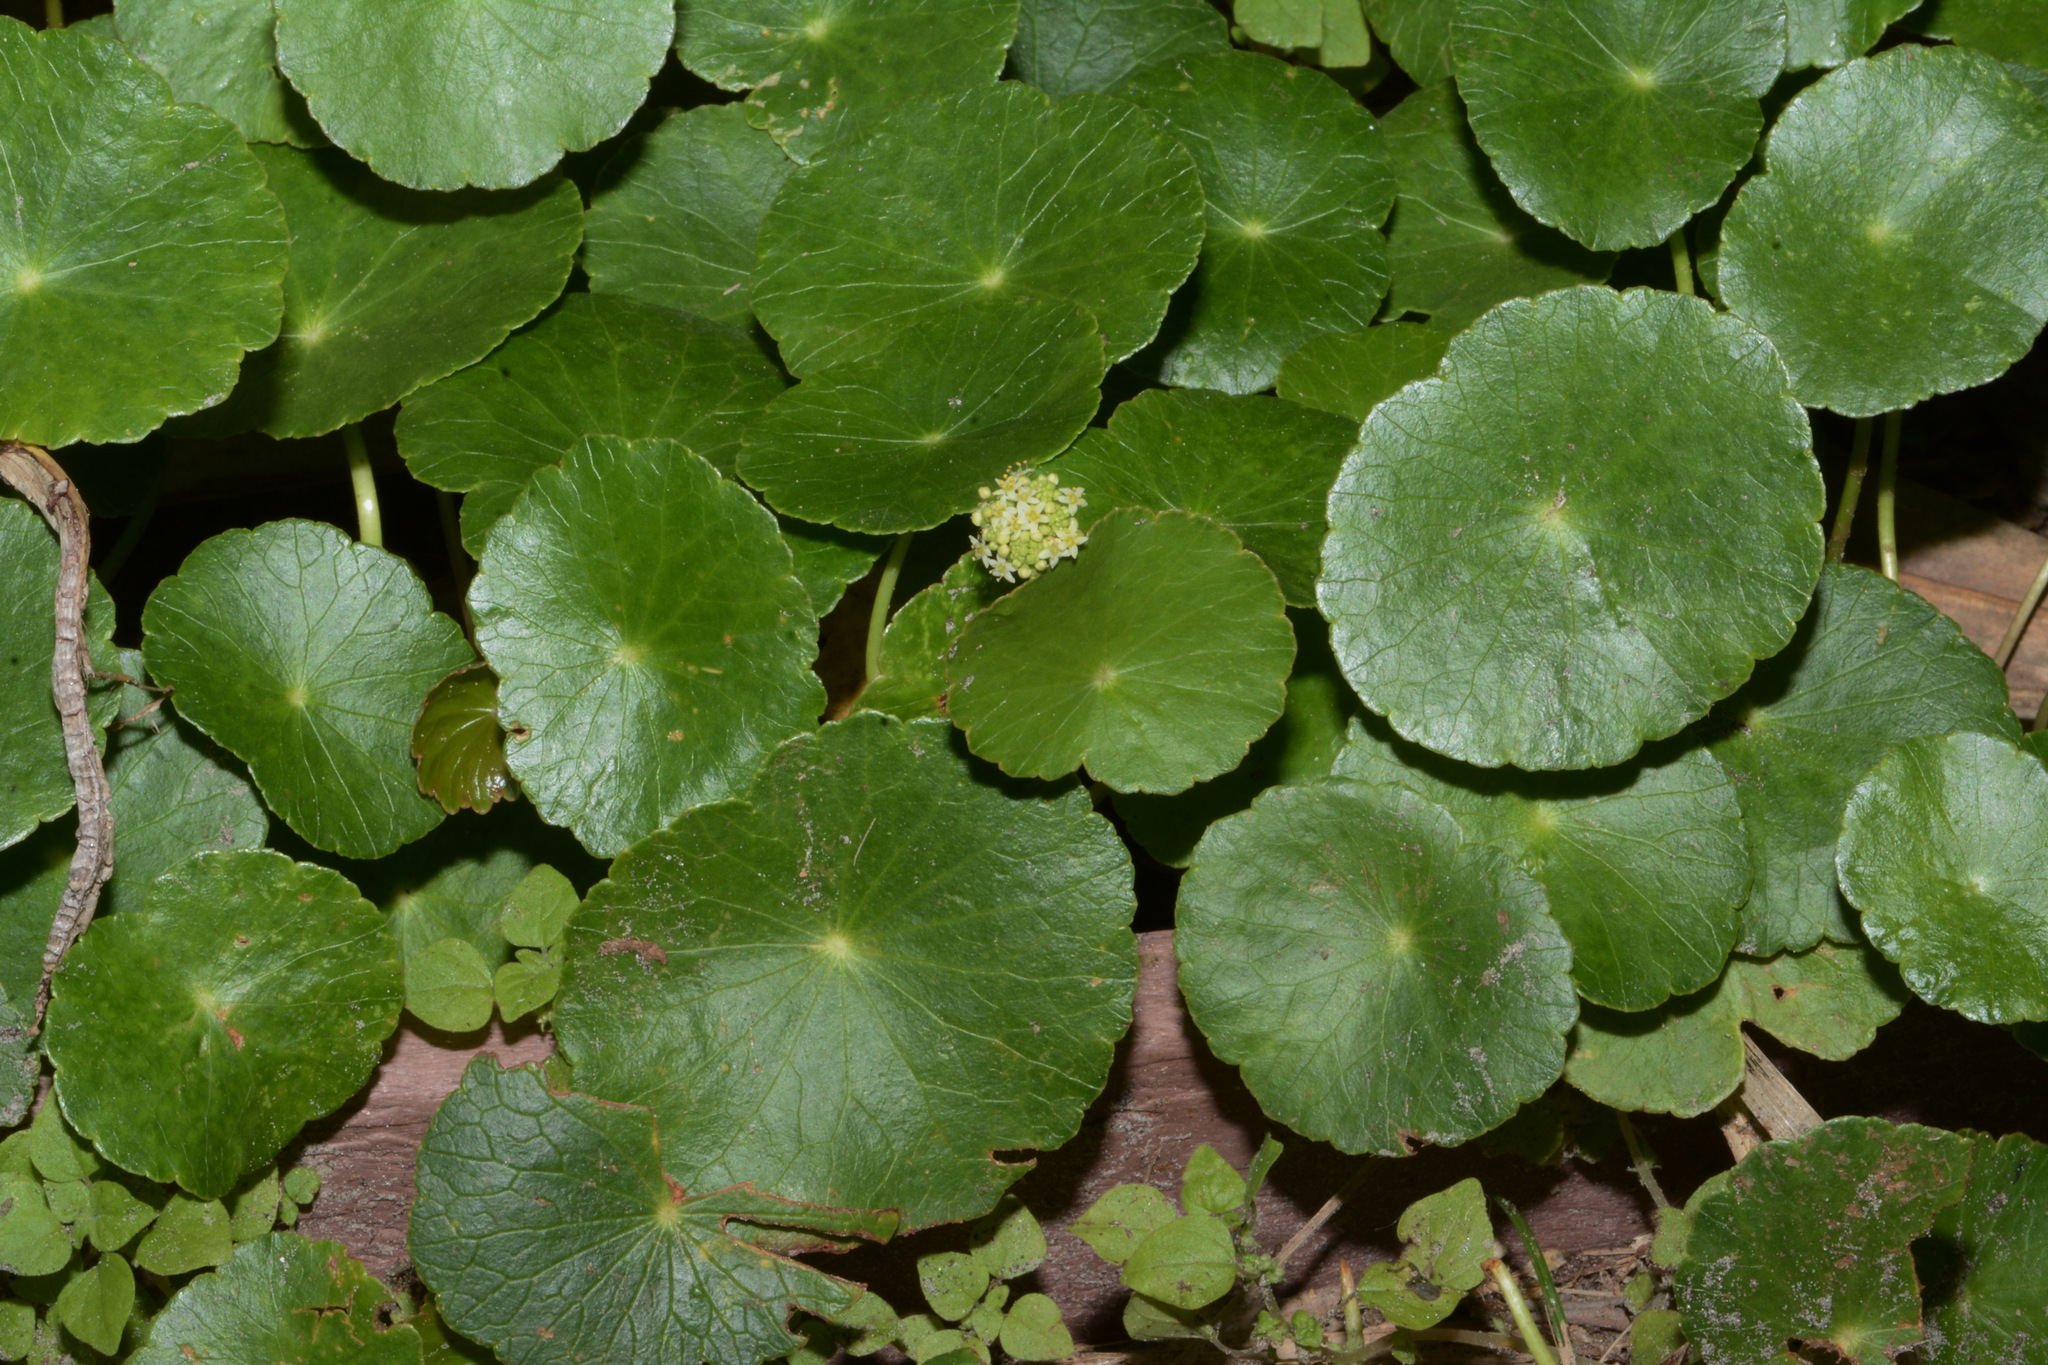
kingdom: Plantae
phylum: Tracheophyta
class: Magnoliopsida
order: Apiales
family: Araliaceae
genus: Hydrocotyle
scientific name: Hydrocotyle bonariensis
